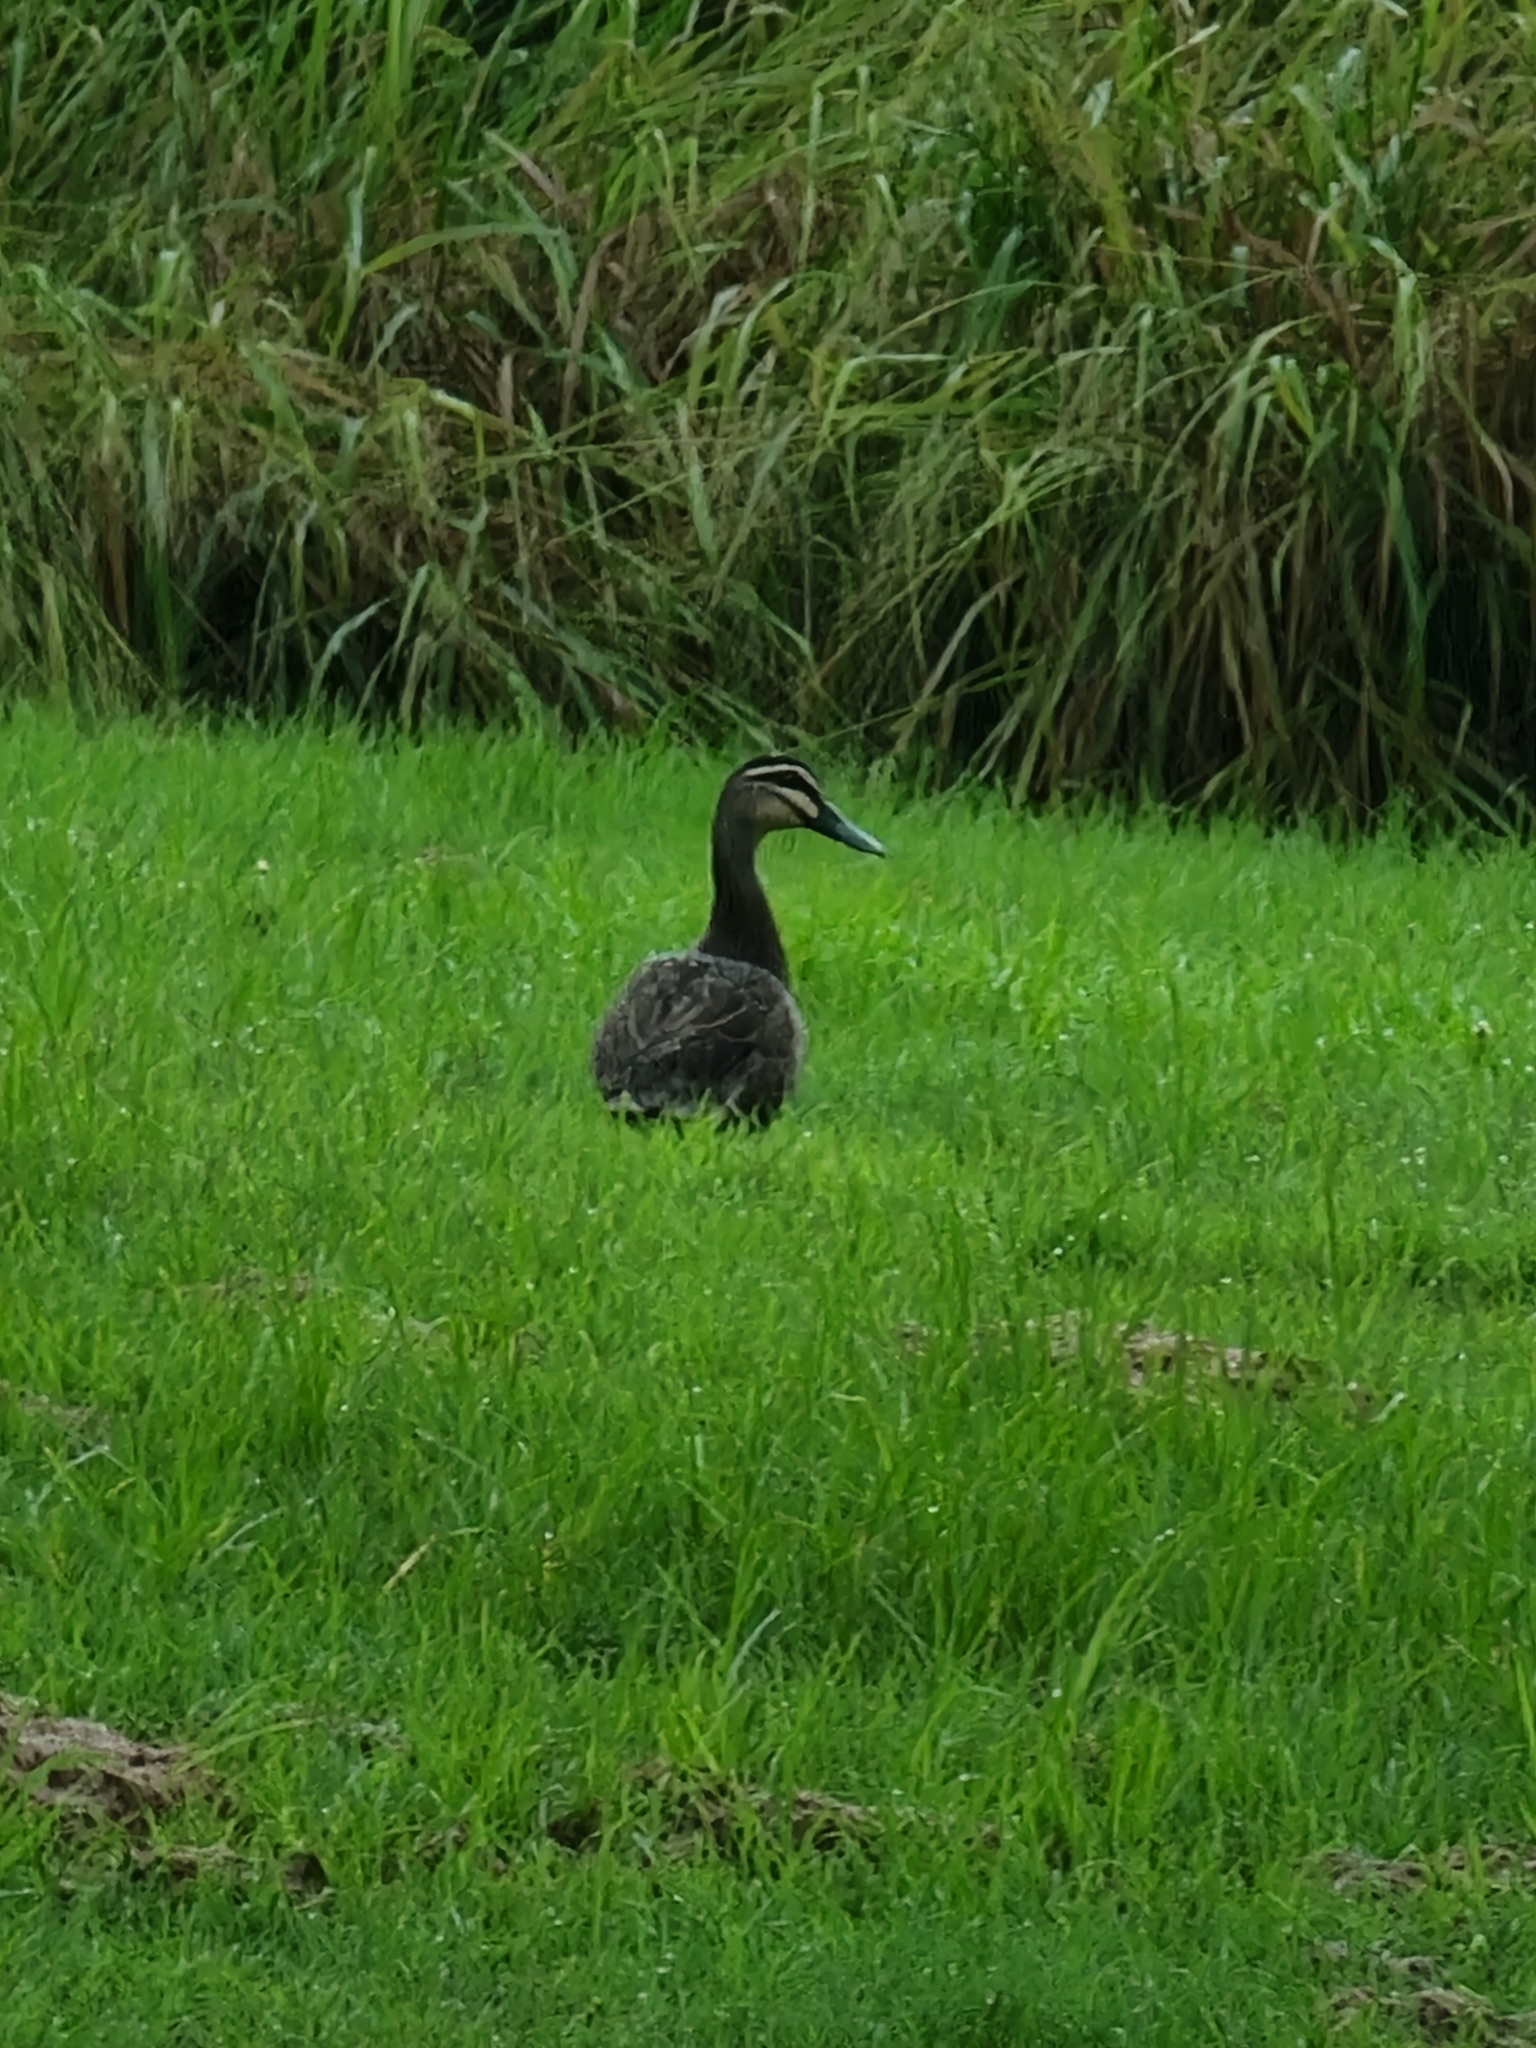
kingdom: Animalia
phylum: Chordata
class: Aves
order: Anseriformes
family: Anatidae
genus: Anas
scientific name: Anas superciliosa
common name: Pacific black duck
